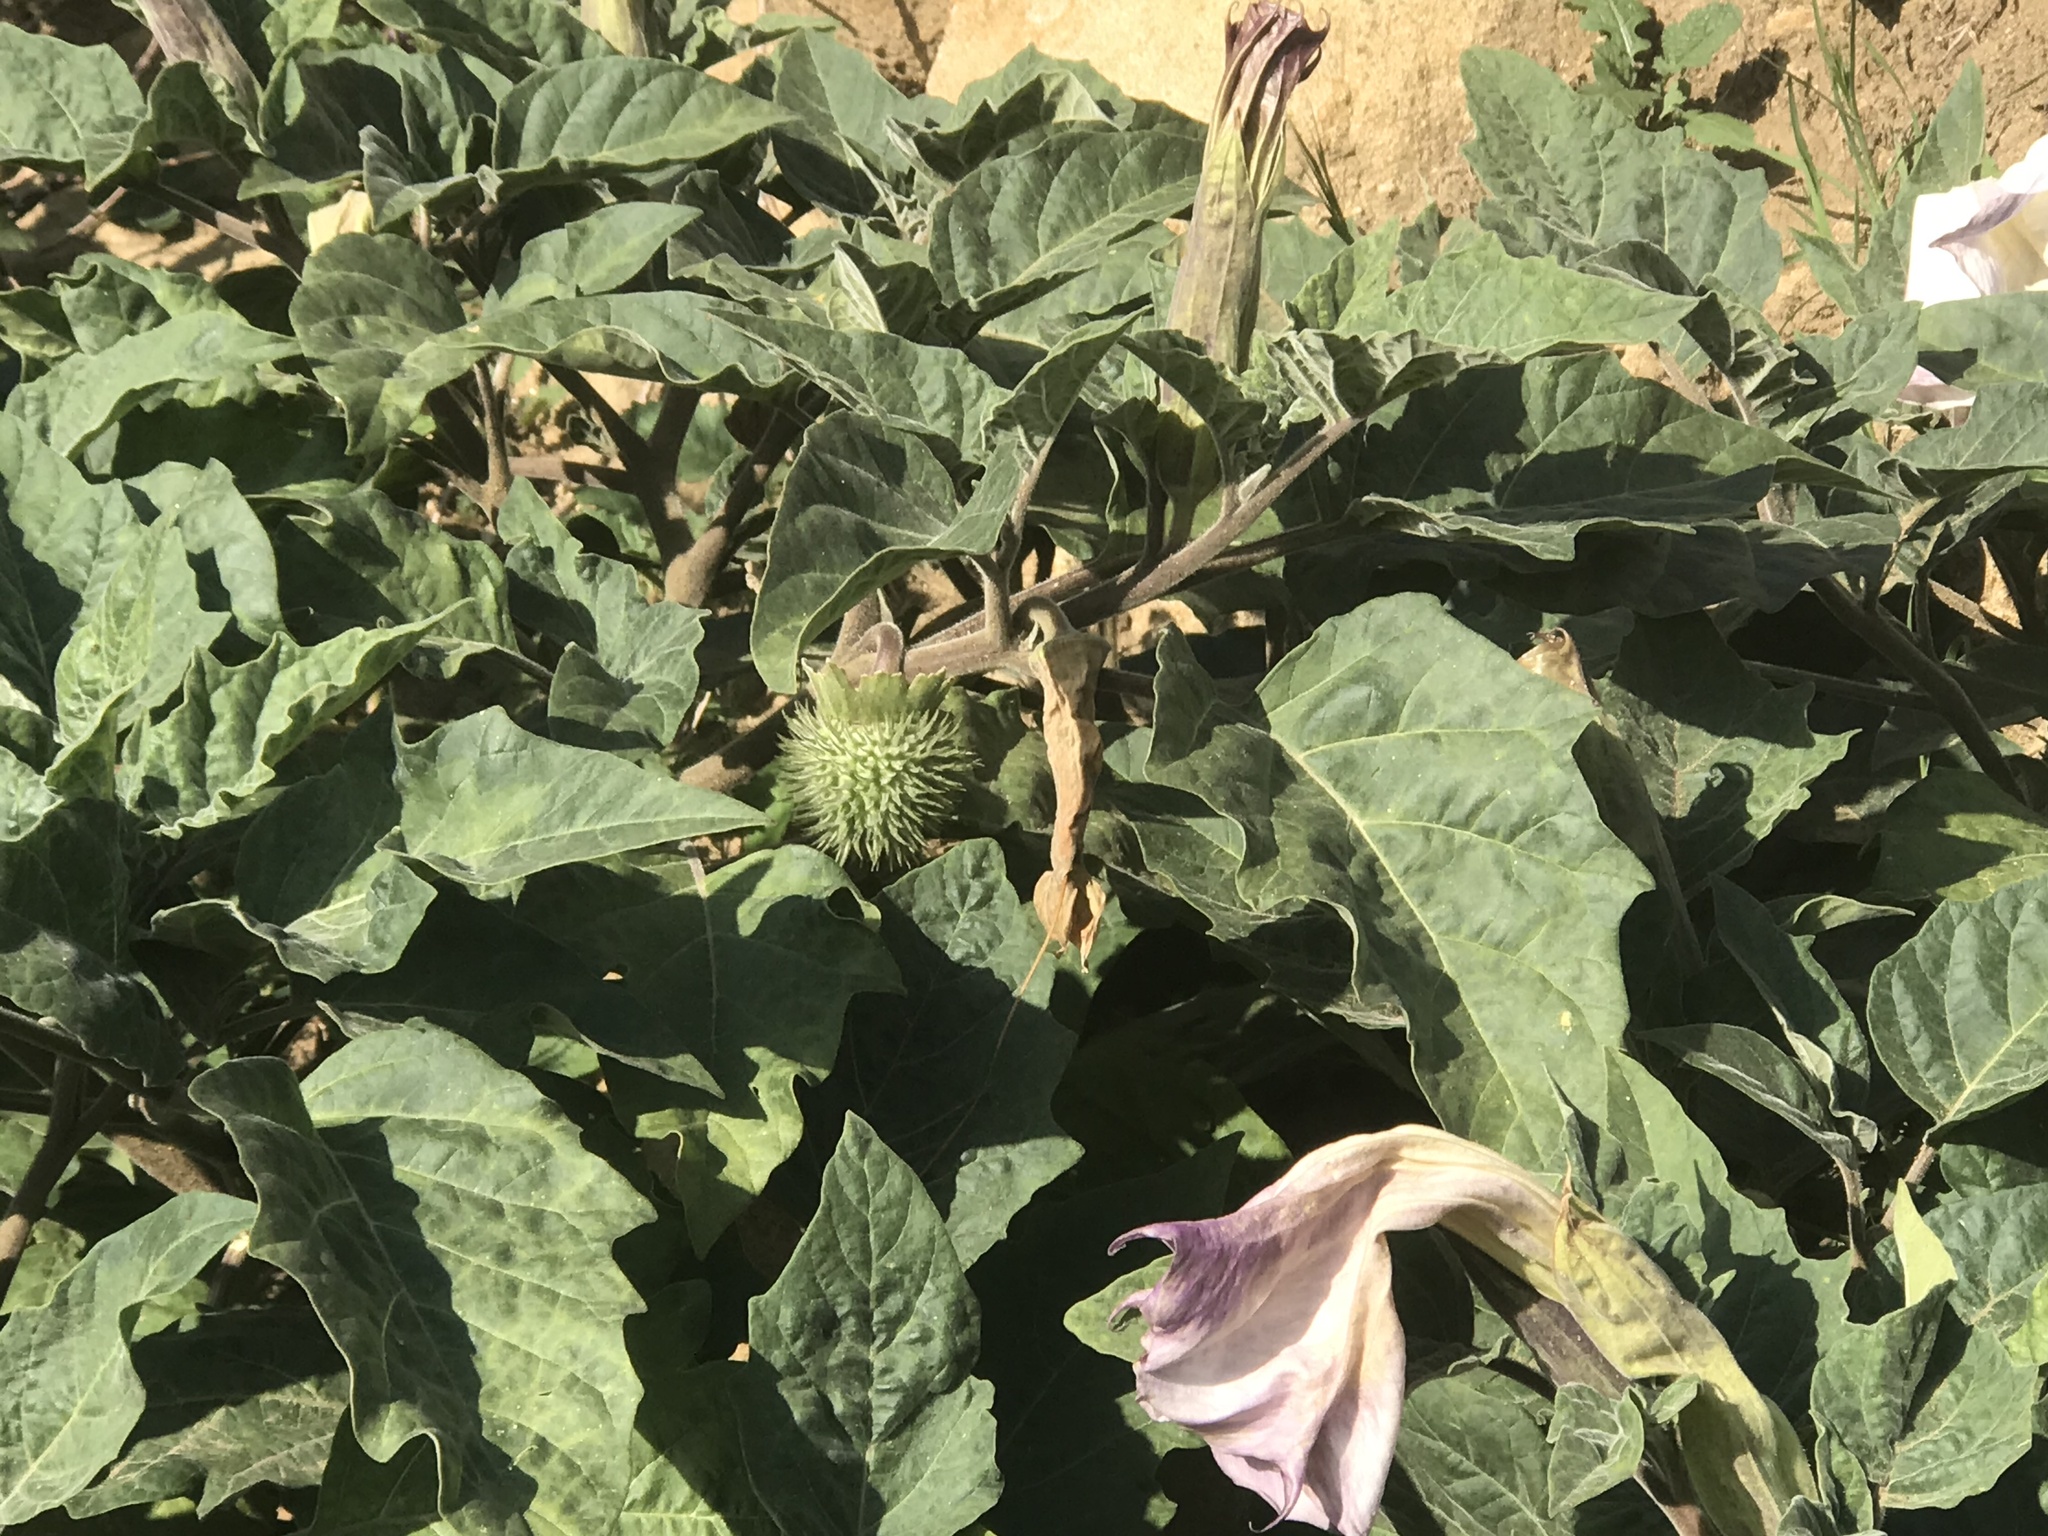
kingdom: Plantae
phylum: Tracheophyta
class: Magnoliopsida
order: Solanales
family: Solanaceae
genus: Datura
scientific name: Datura wrightii
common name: Sacred thorn-apple
